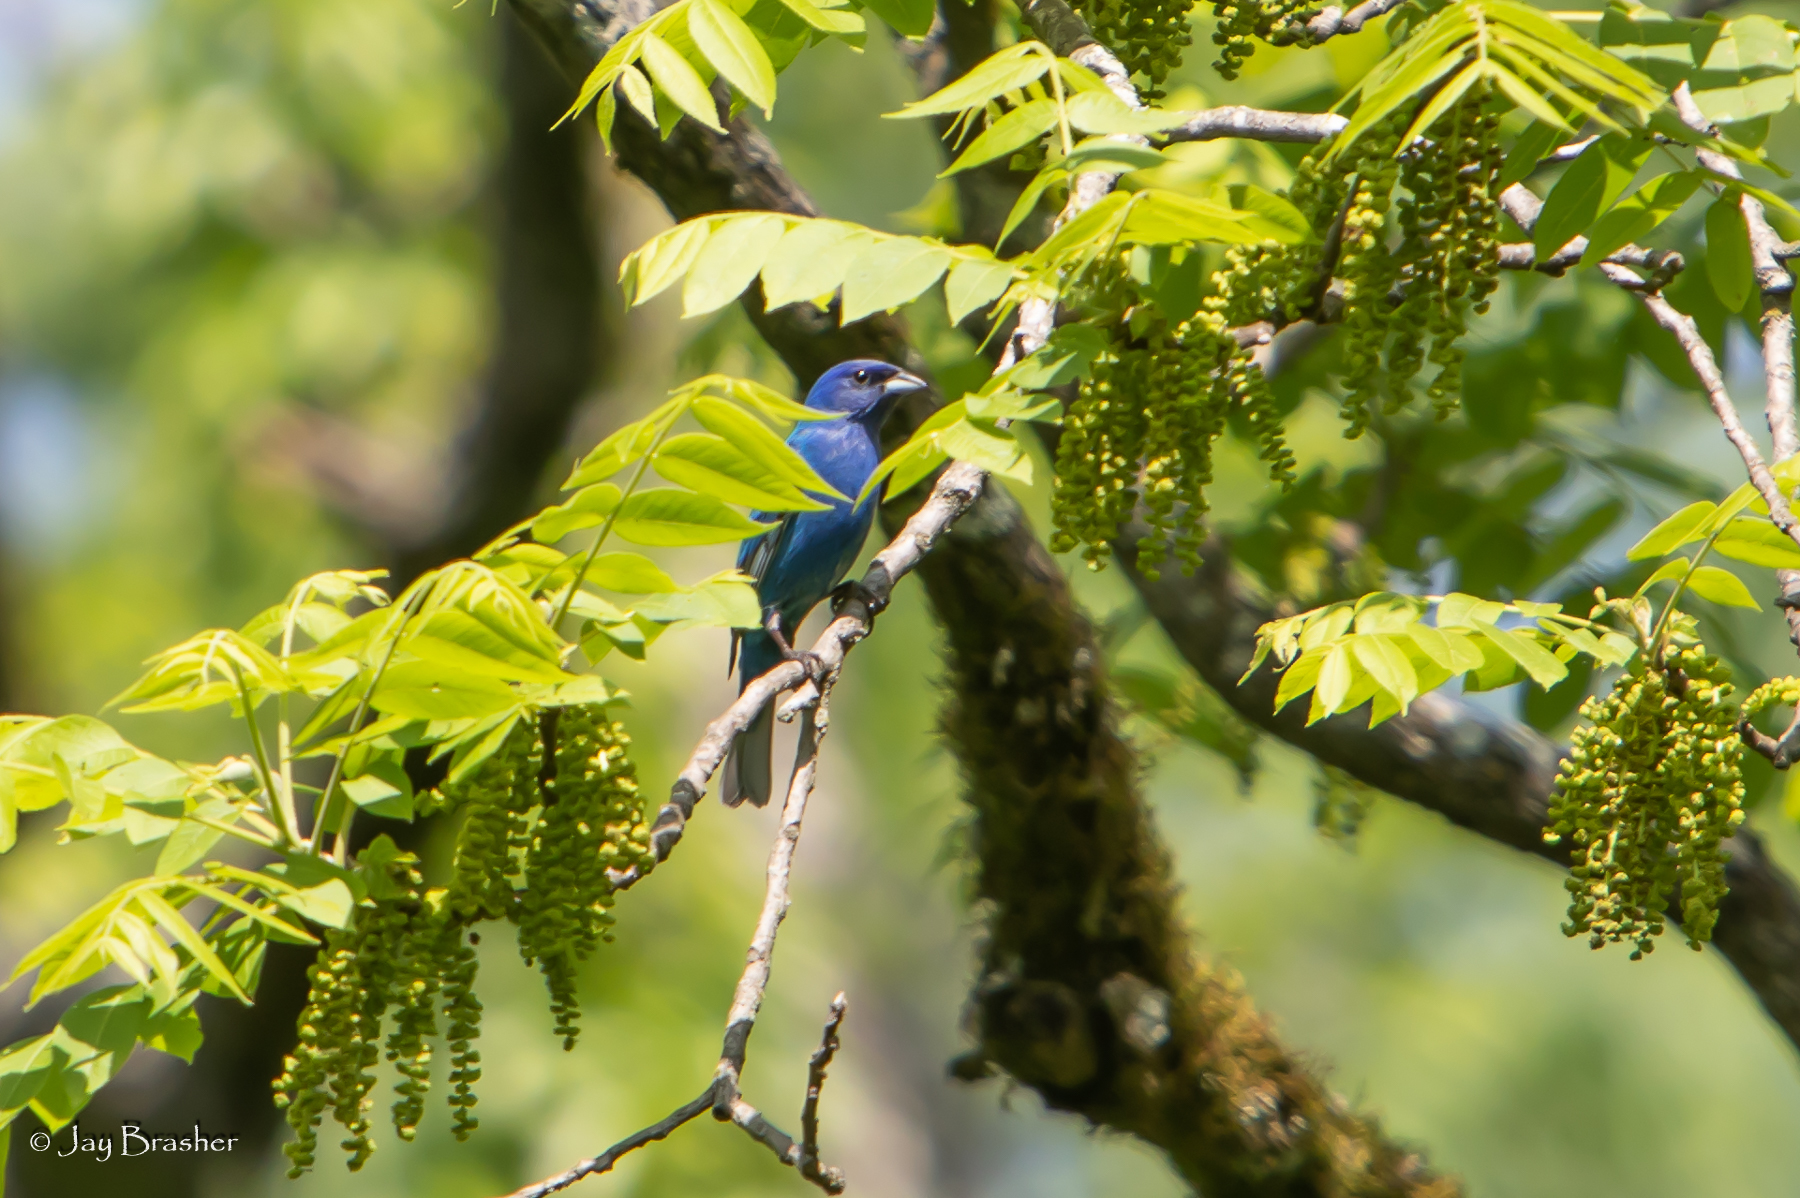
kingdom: Animalia
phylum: Chordata
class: Aves
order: Passeriformes
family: Cardinalidae
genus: Passerina
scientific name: Passerina cyanea
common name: Indigo bunting
